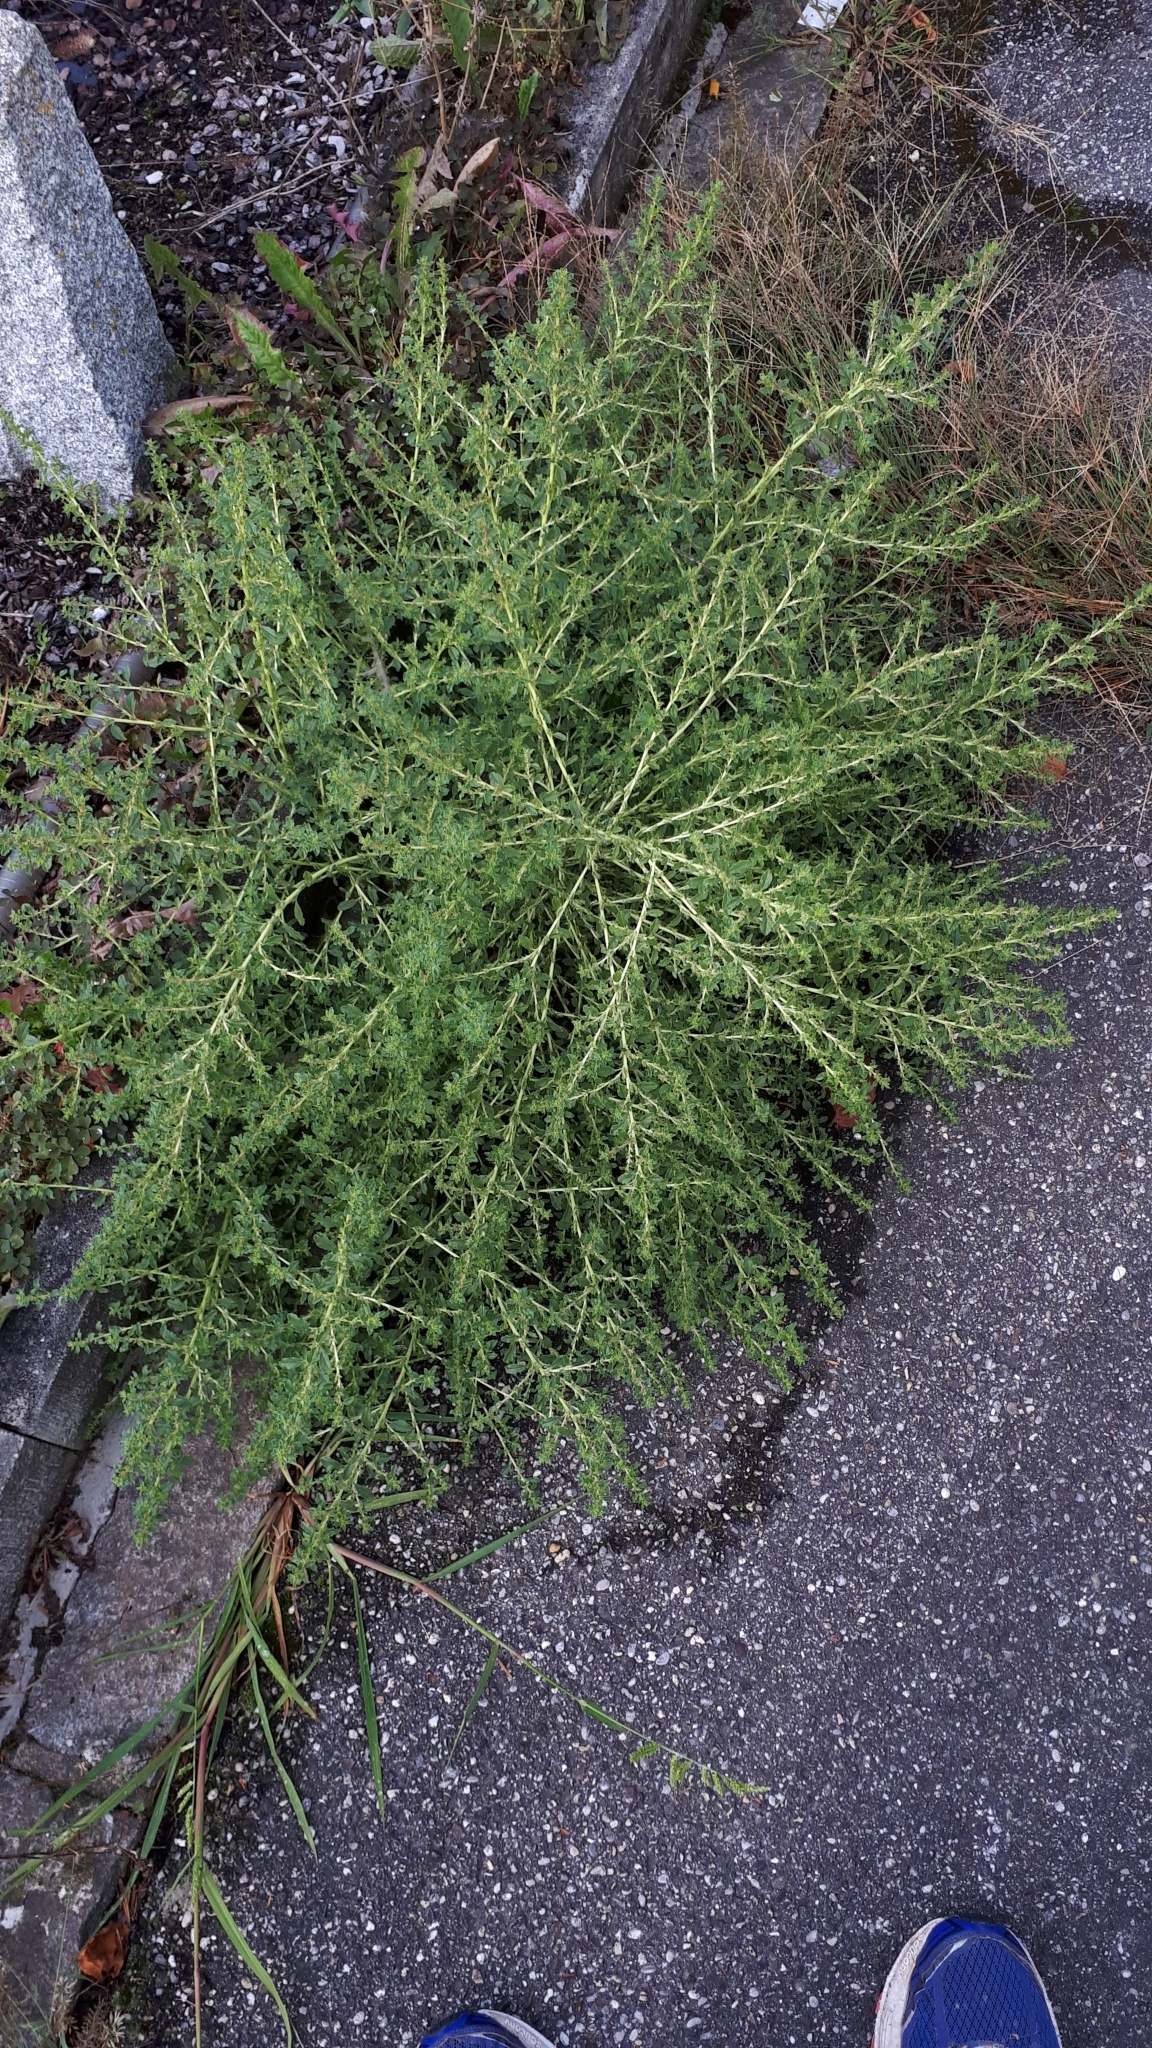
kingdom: Plantae
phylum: Tracheophyta
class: Magnoliopsida
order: Caryophyllales
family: Amaranthaceae
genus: Amaranthus
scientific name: Amaranthus albus
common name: White pigweed
